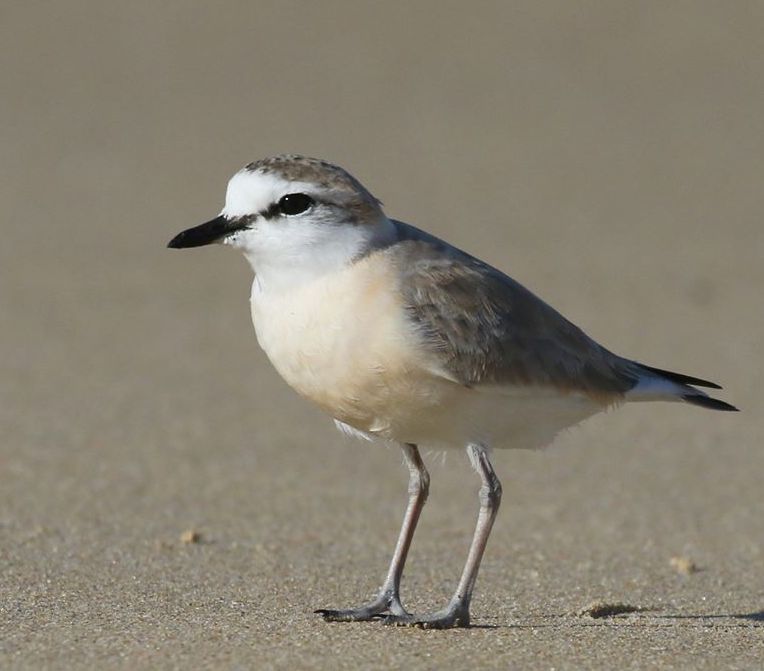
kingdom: Animalia
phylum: Chordata
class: Aves
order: Charadriiformes
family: Charadriidae
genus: Anarhynchus
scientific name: Anarhynchus
